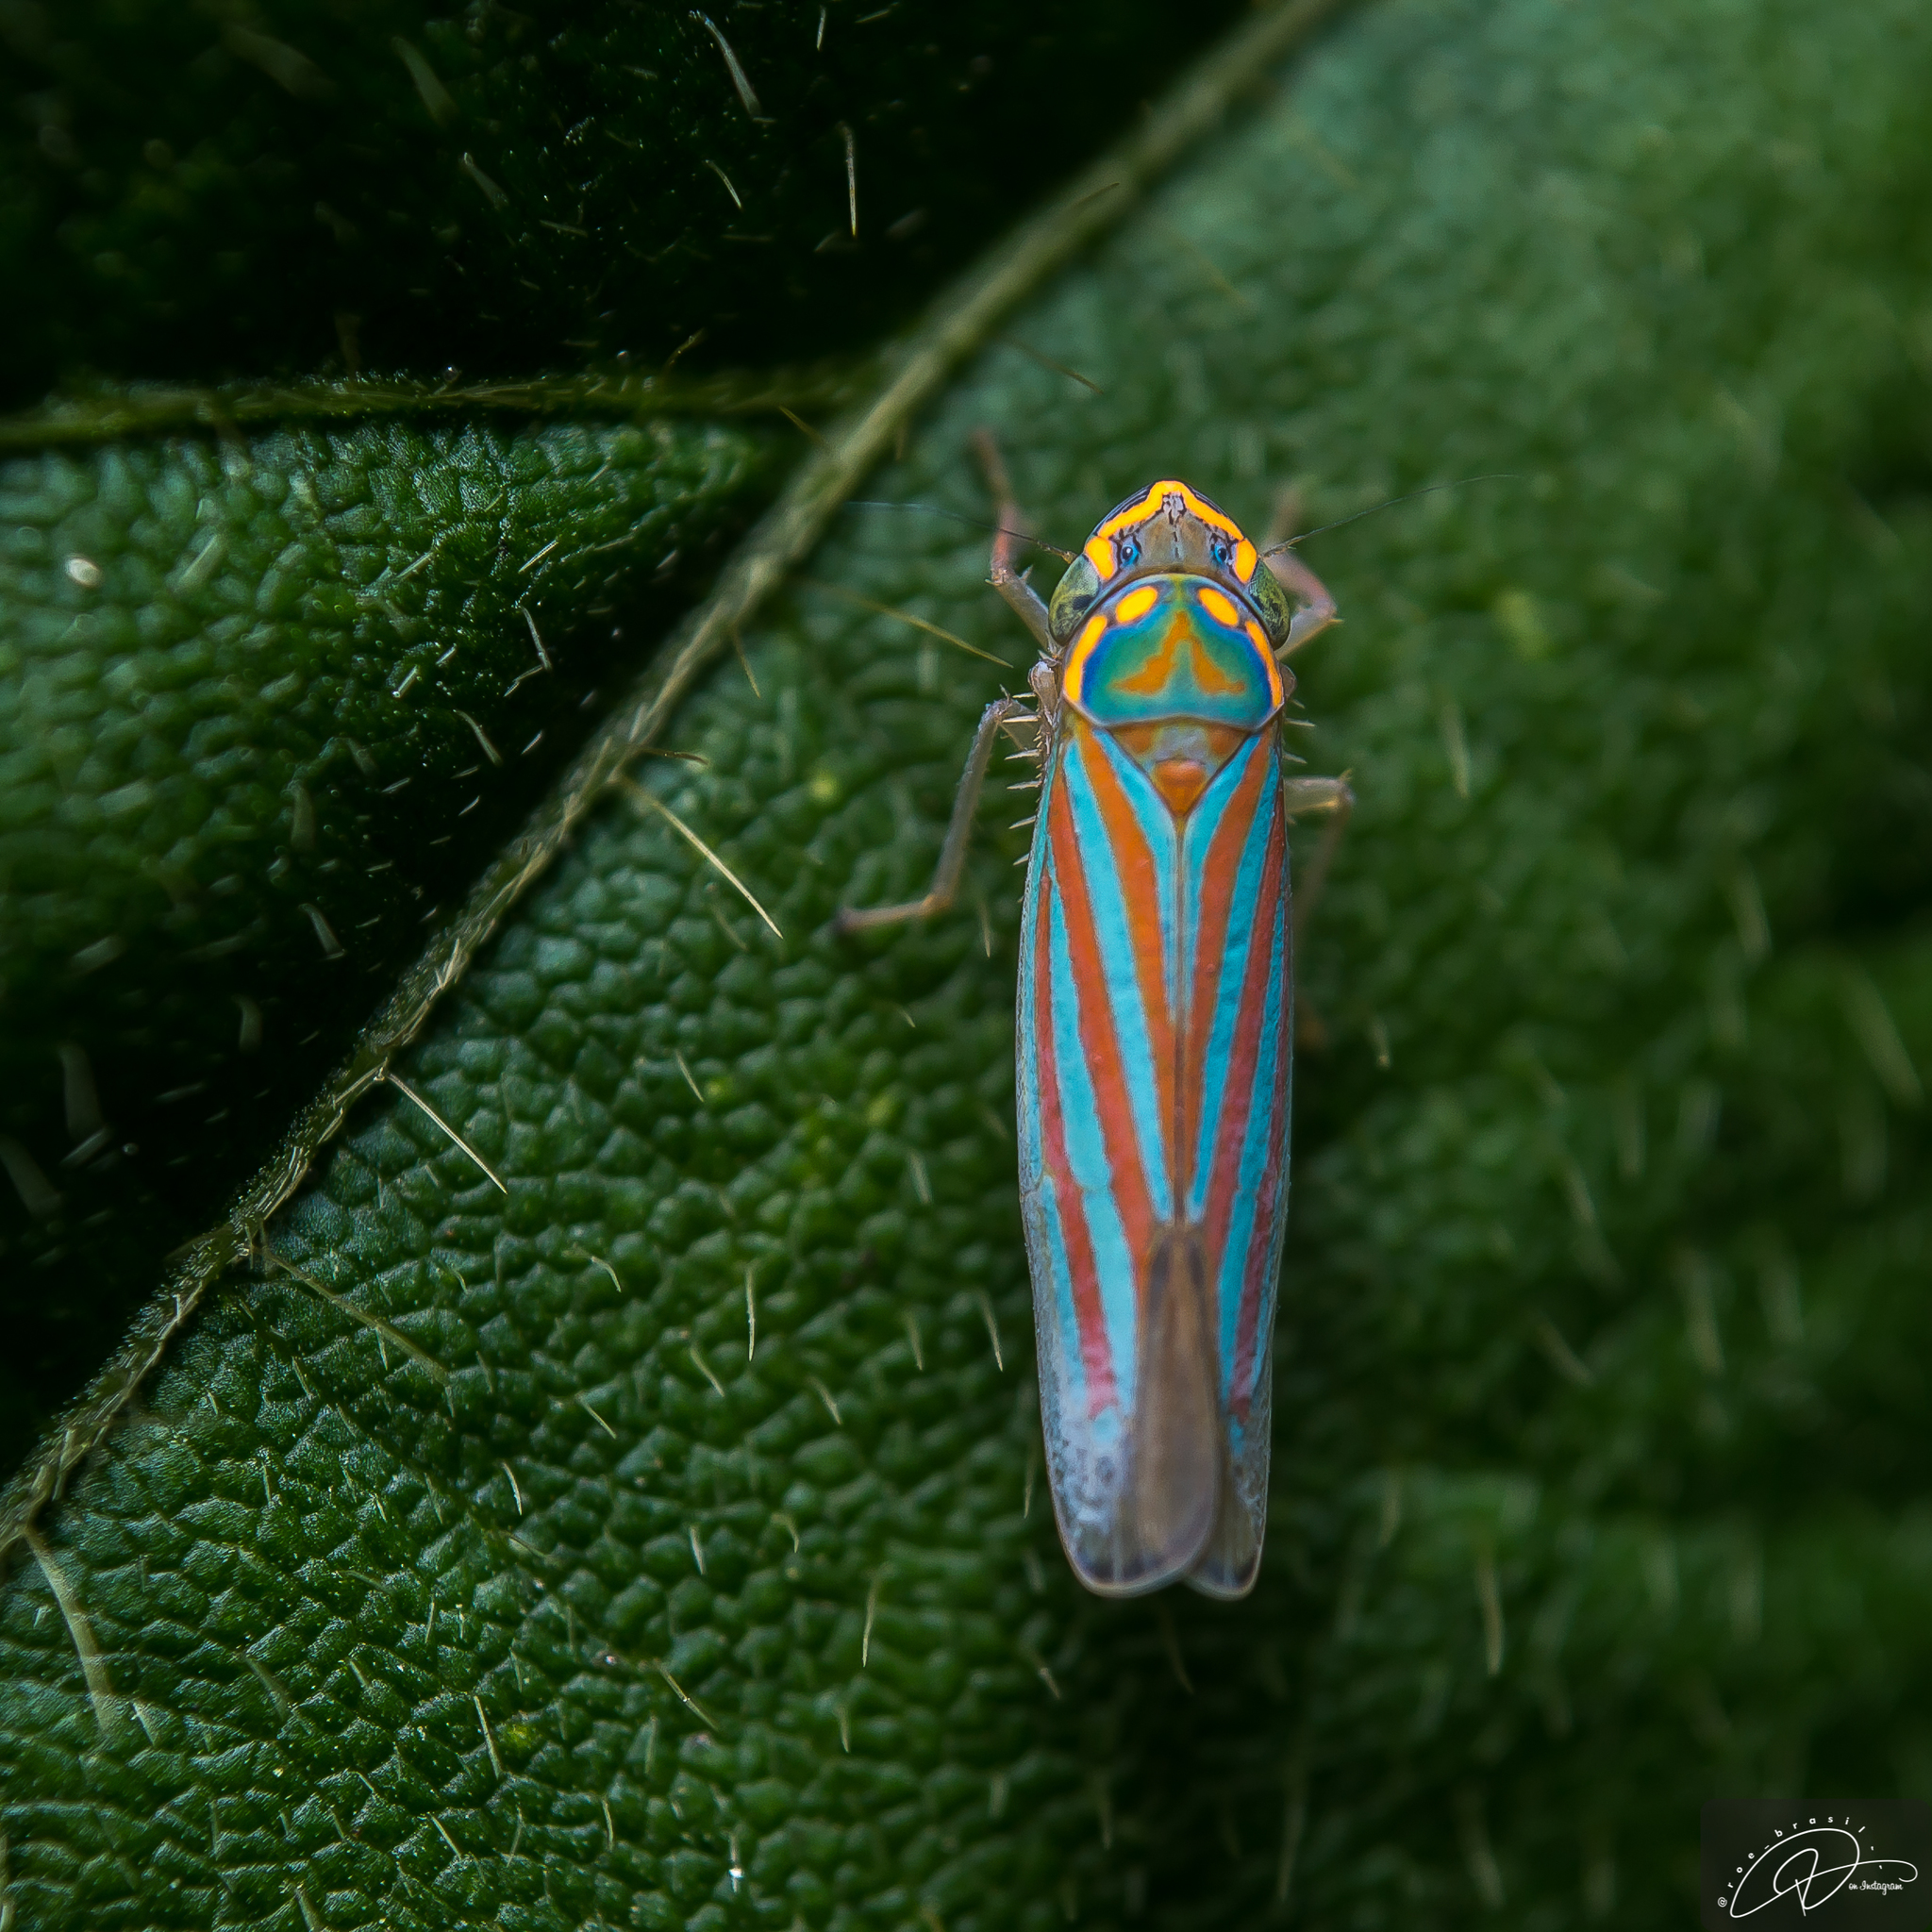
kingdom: Animalia
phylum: Arthropoda
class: Insecta
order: Hemiptera
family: Cicadellidae
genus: Ferrariana
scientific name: Ferrariana trivittata
